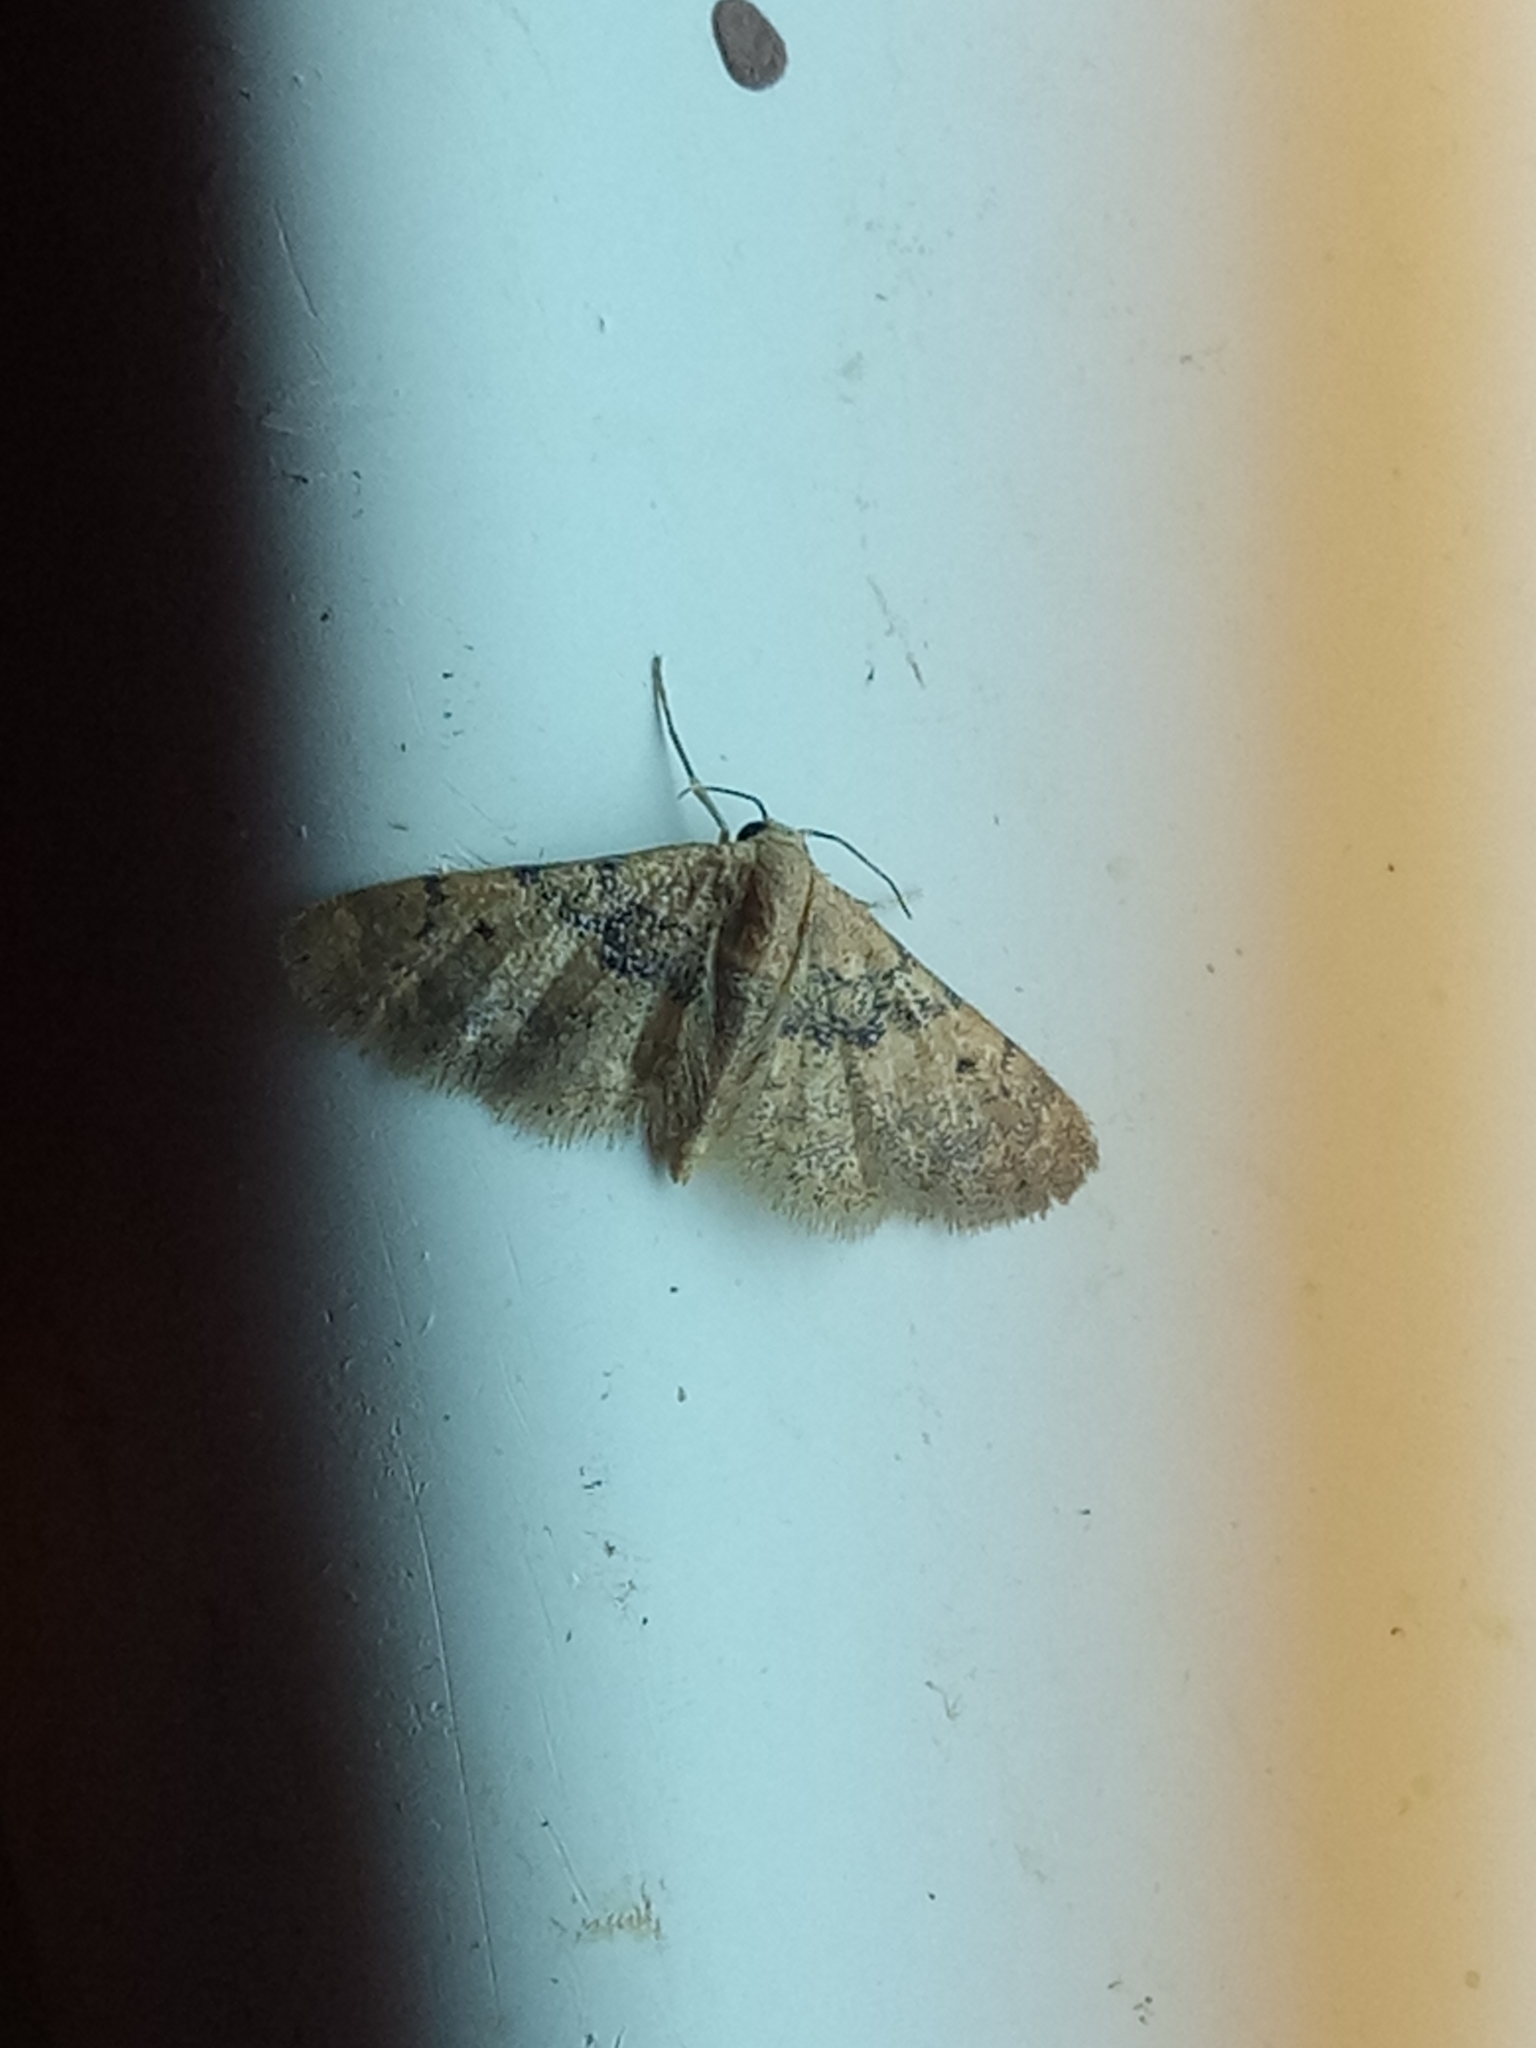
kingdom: Animalia
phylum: Arthropoda
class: Insecta
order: Lepidoptera
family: Geometridae
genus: Idaea
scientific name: Idaea sanctaria
